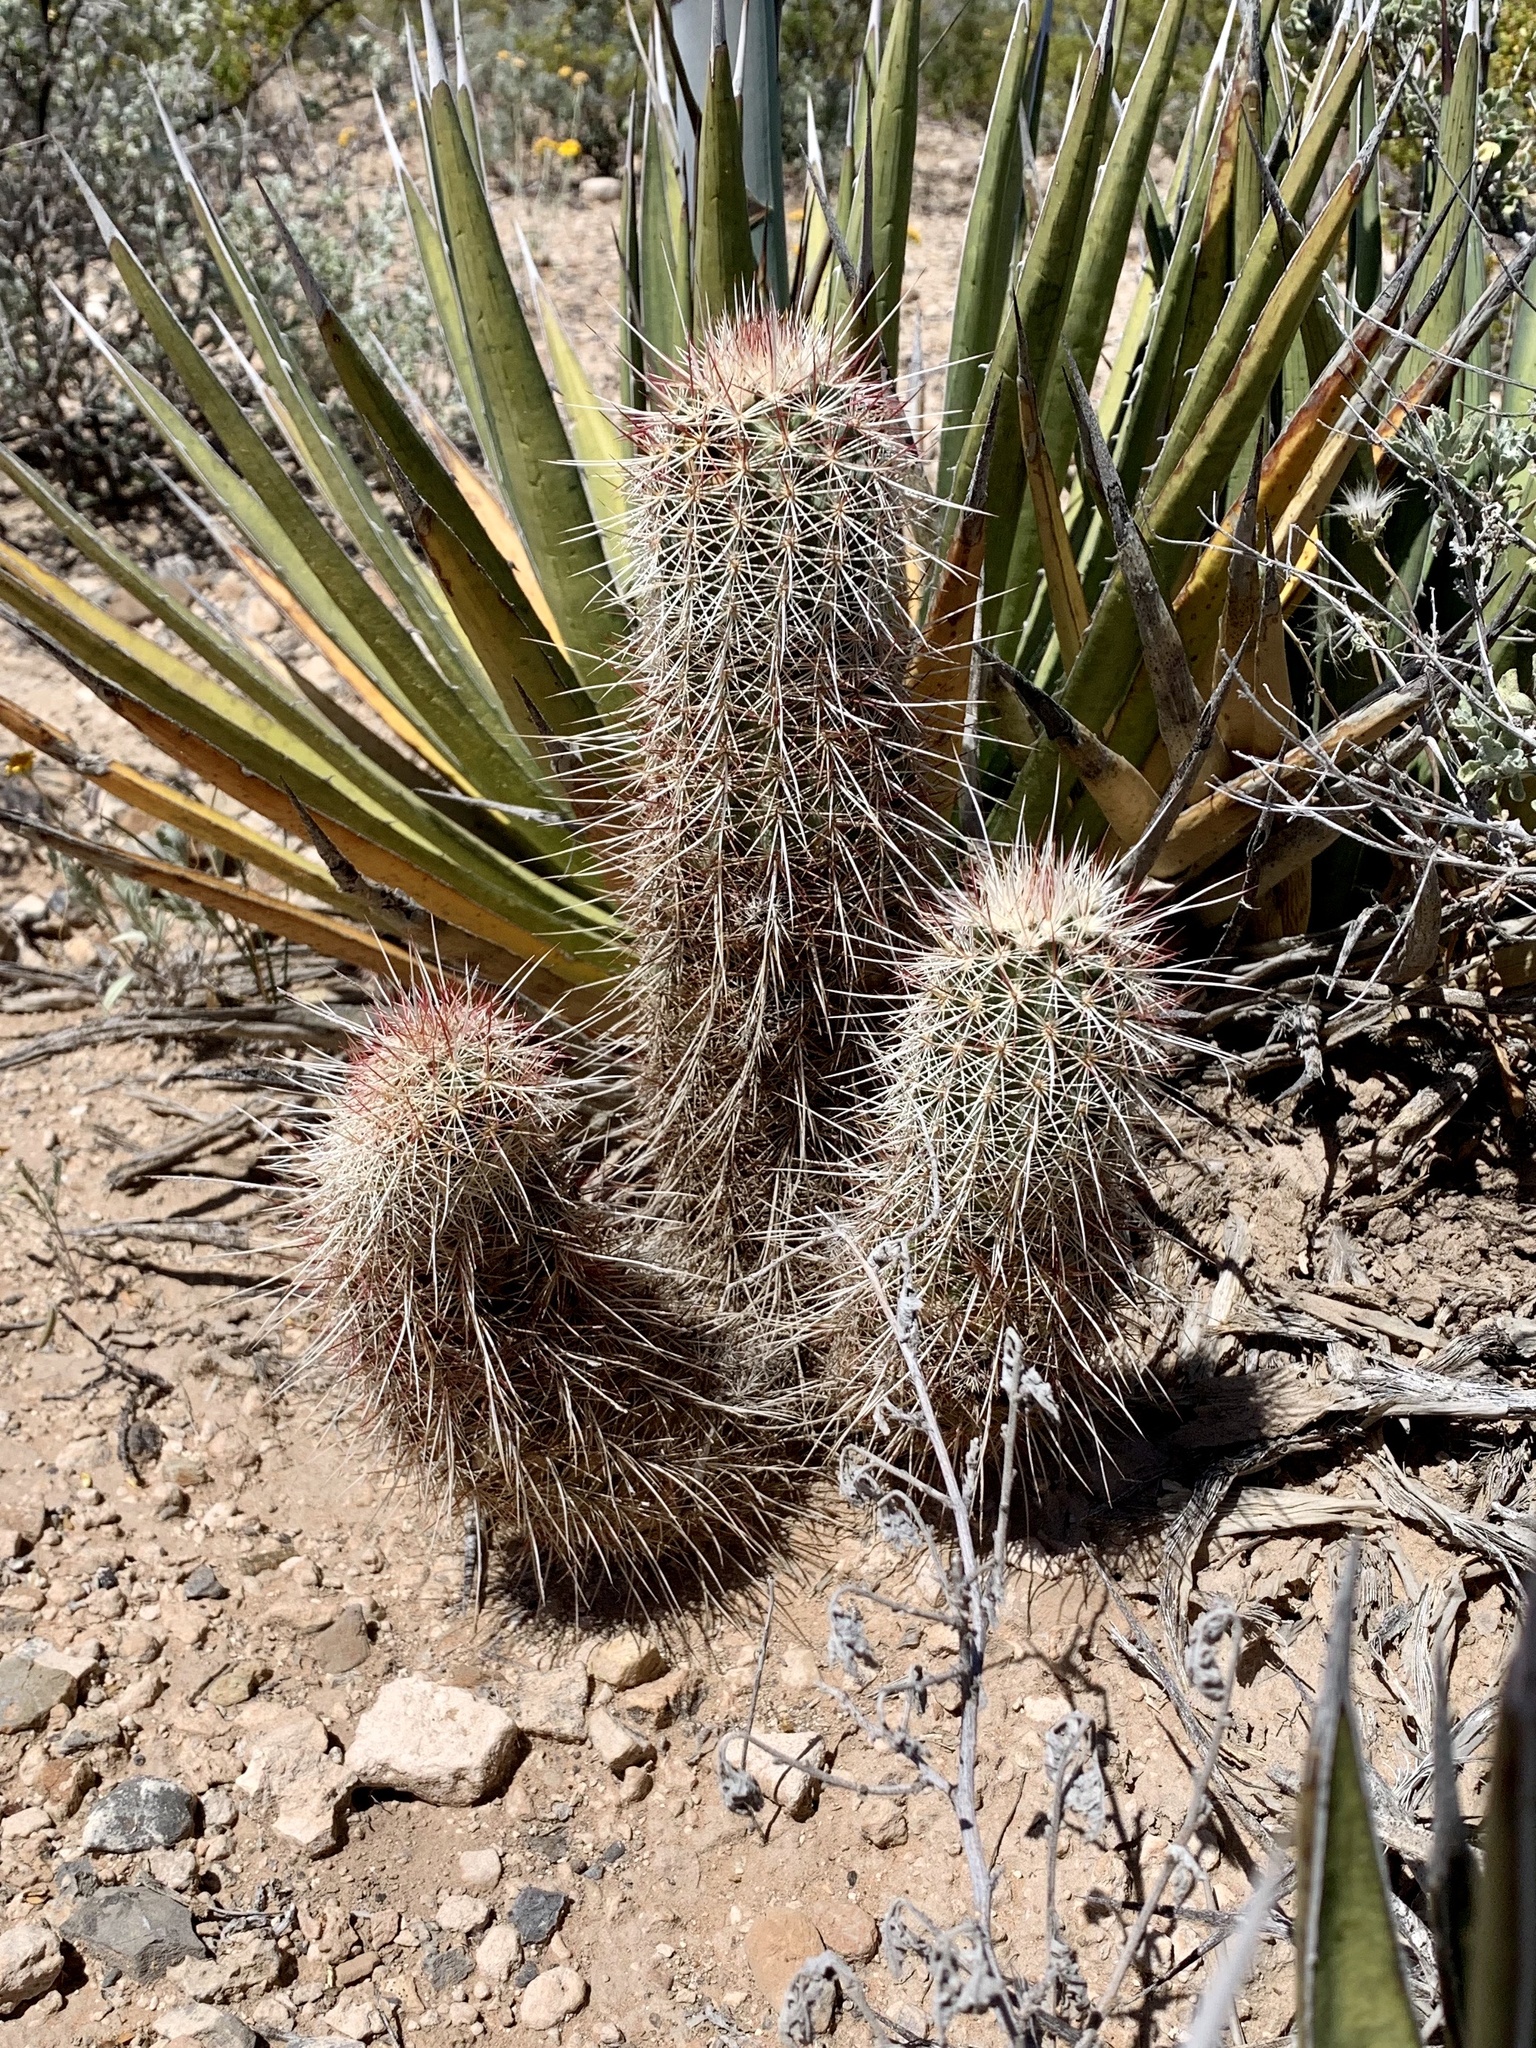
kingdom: Plantae
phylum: Tracheophyta
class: Magnoliopsida
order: Caryophyllales
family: Cactaceae
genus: Echinocereus
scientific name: Echinocereus viridiflorus
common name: Nylon hedgehog cactus
